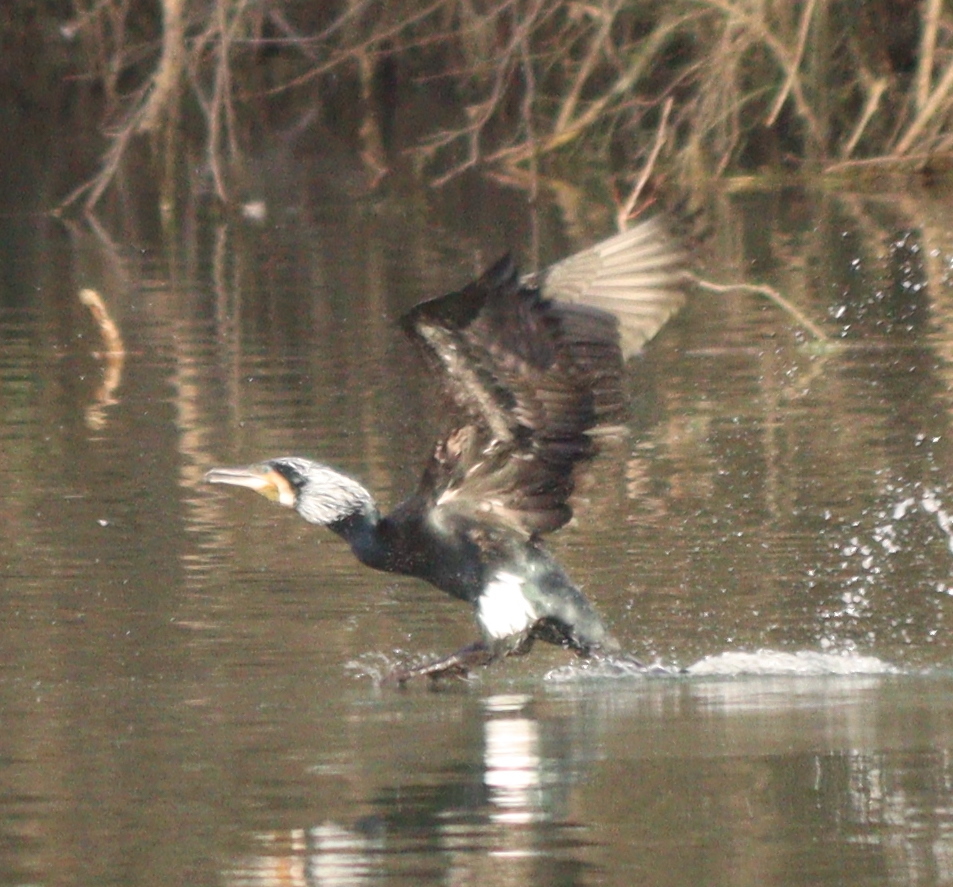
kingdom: Animalia
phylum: Chordata
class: Aves
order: Suliformes
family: Phalacrocoracidae
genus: Phalacrocorax
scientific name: Phalacrocorax carbo
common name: Great cormorant
